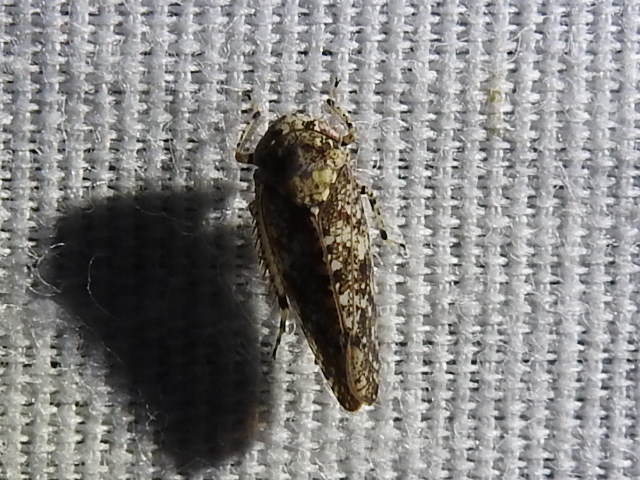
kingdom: Animalia
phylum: Arthropoda
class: Insecta
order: Hemiptera
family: Cicadellidae
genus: Paraphlepsius
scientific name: Paraphlepsius collitus
